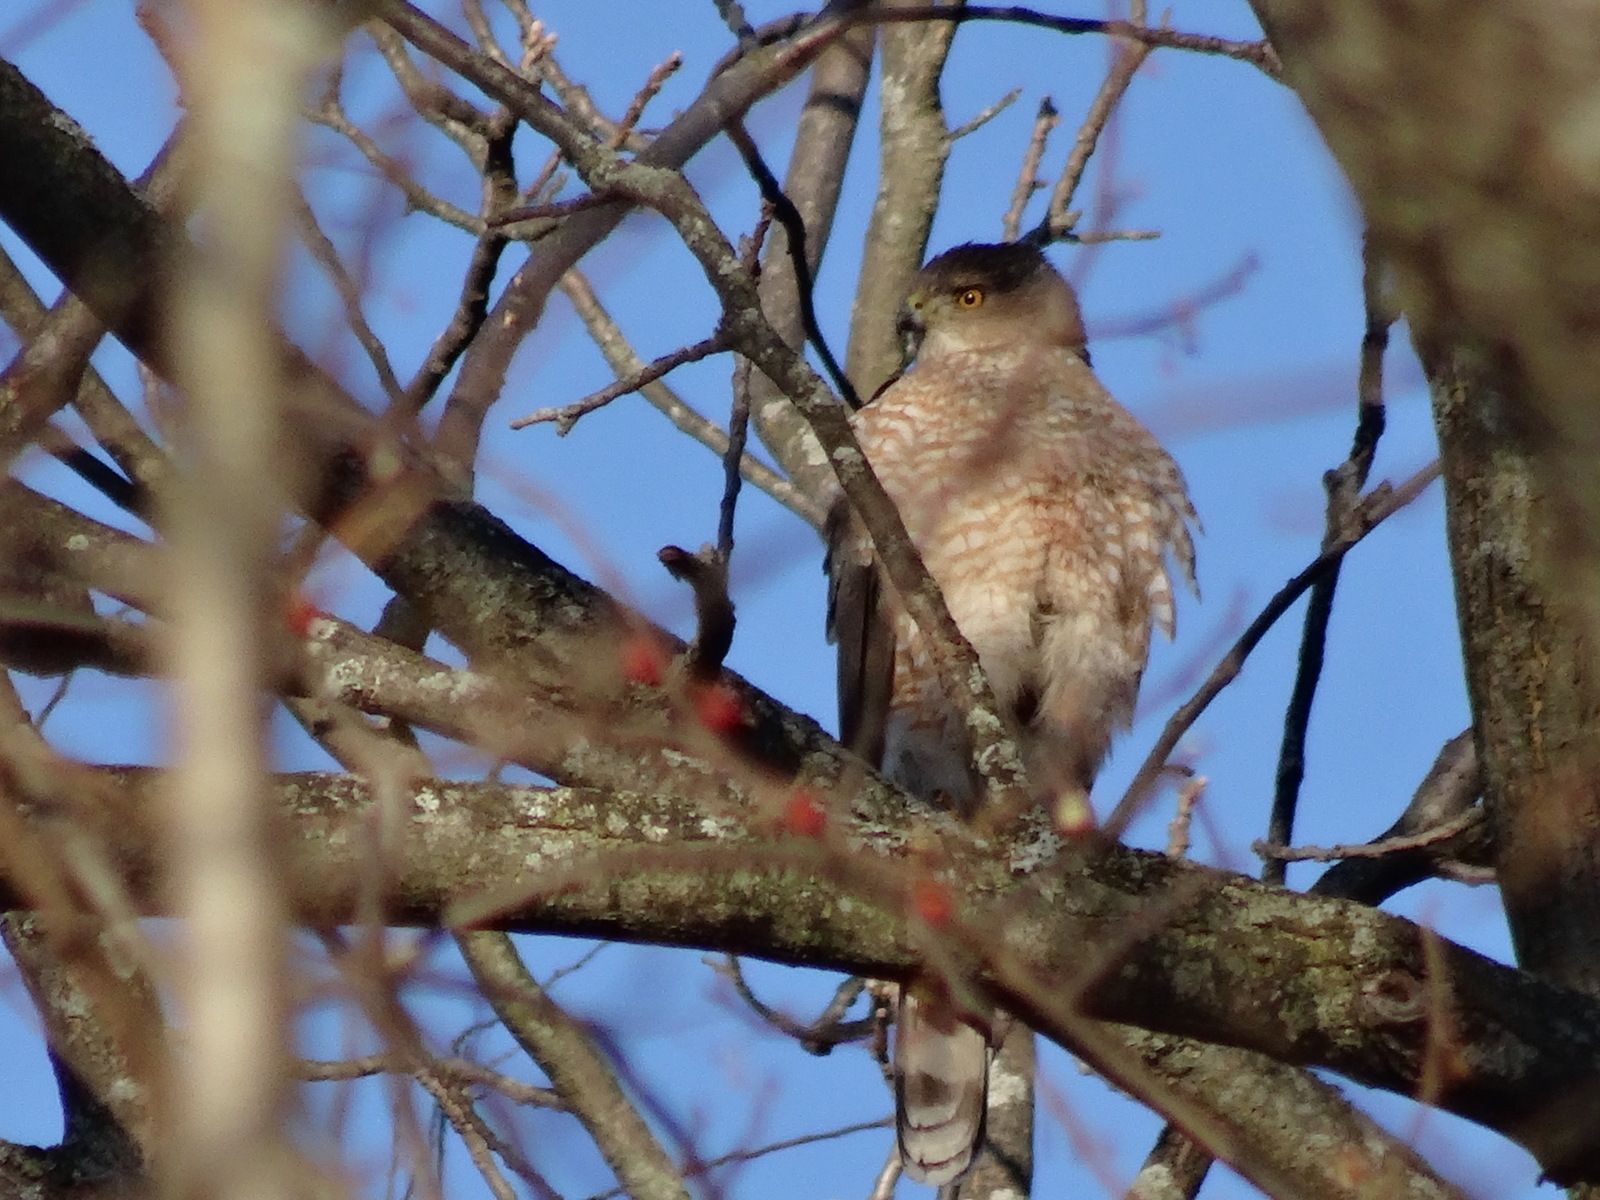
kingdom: Animalia
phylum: Chordata
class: Aves
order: Accipitriformes
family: Accipitridae
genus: Accipiter
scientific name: Accipiter cooperii
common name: Cooper's hawk
